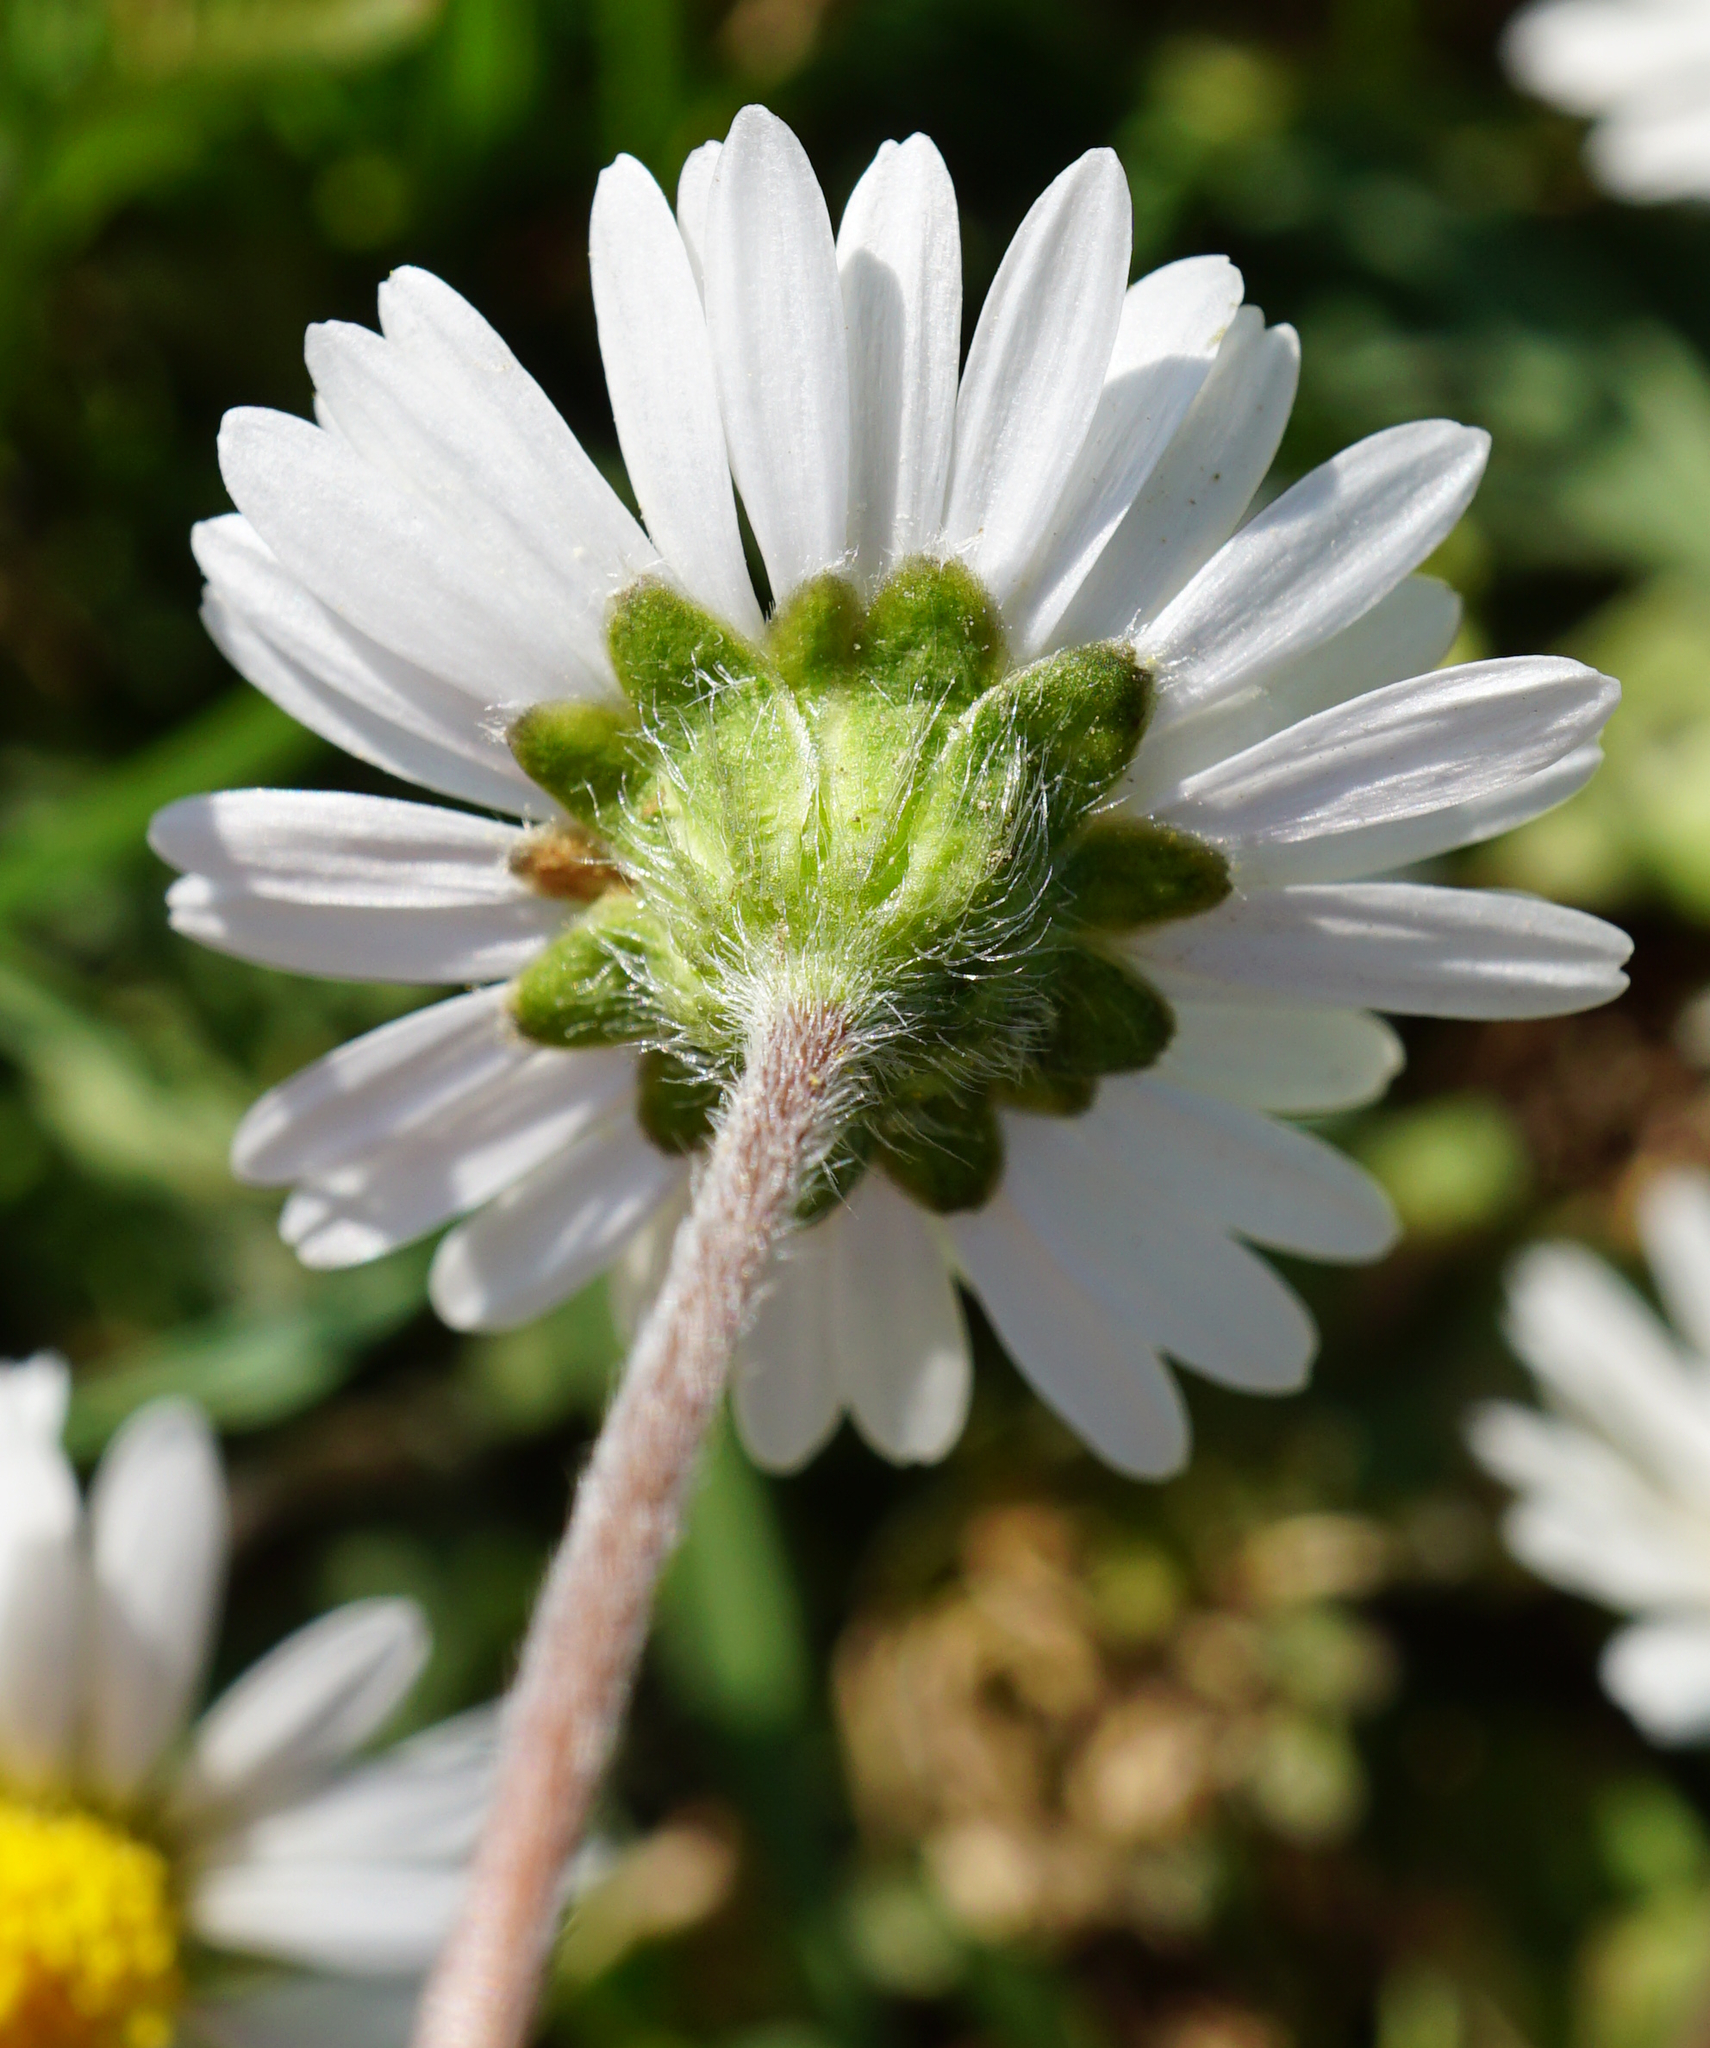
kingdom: Plantae
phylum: Tracheophyta
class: Magnoliopsida
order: Asterales
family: Asteraceae
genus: Bellis
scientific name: Bellis perennis
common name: Lawndaisy
